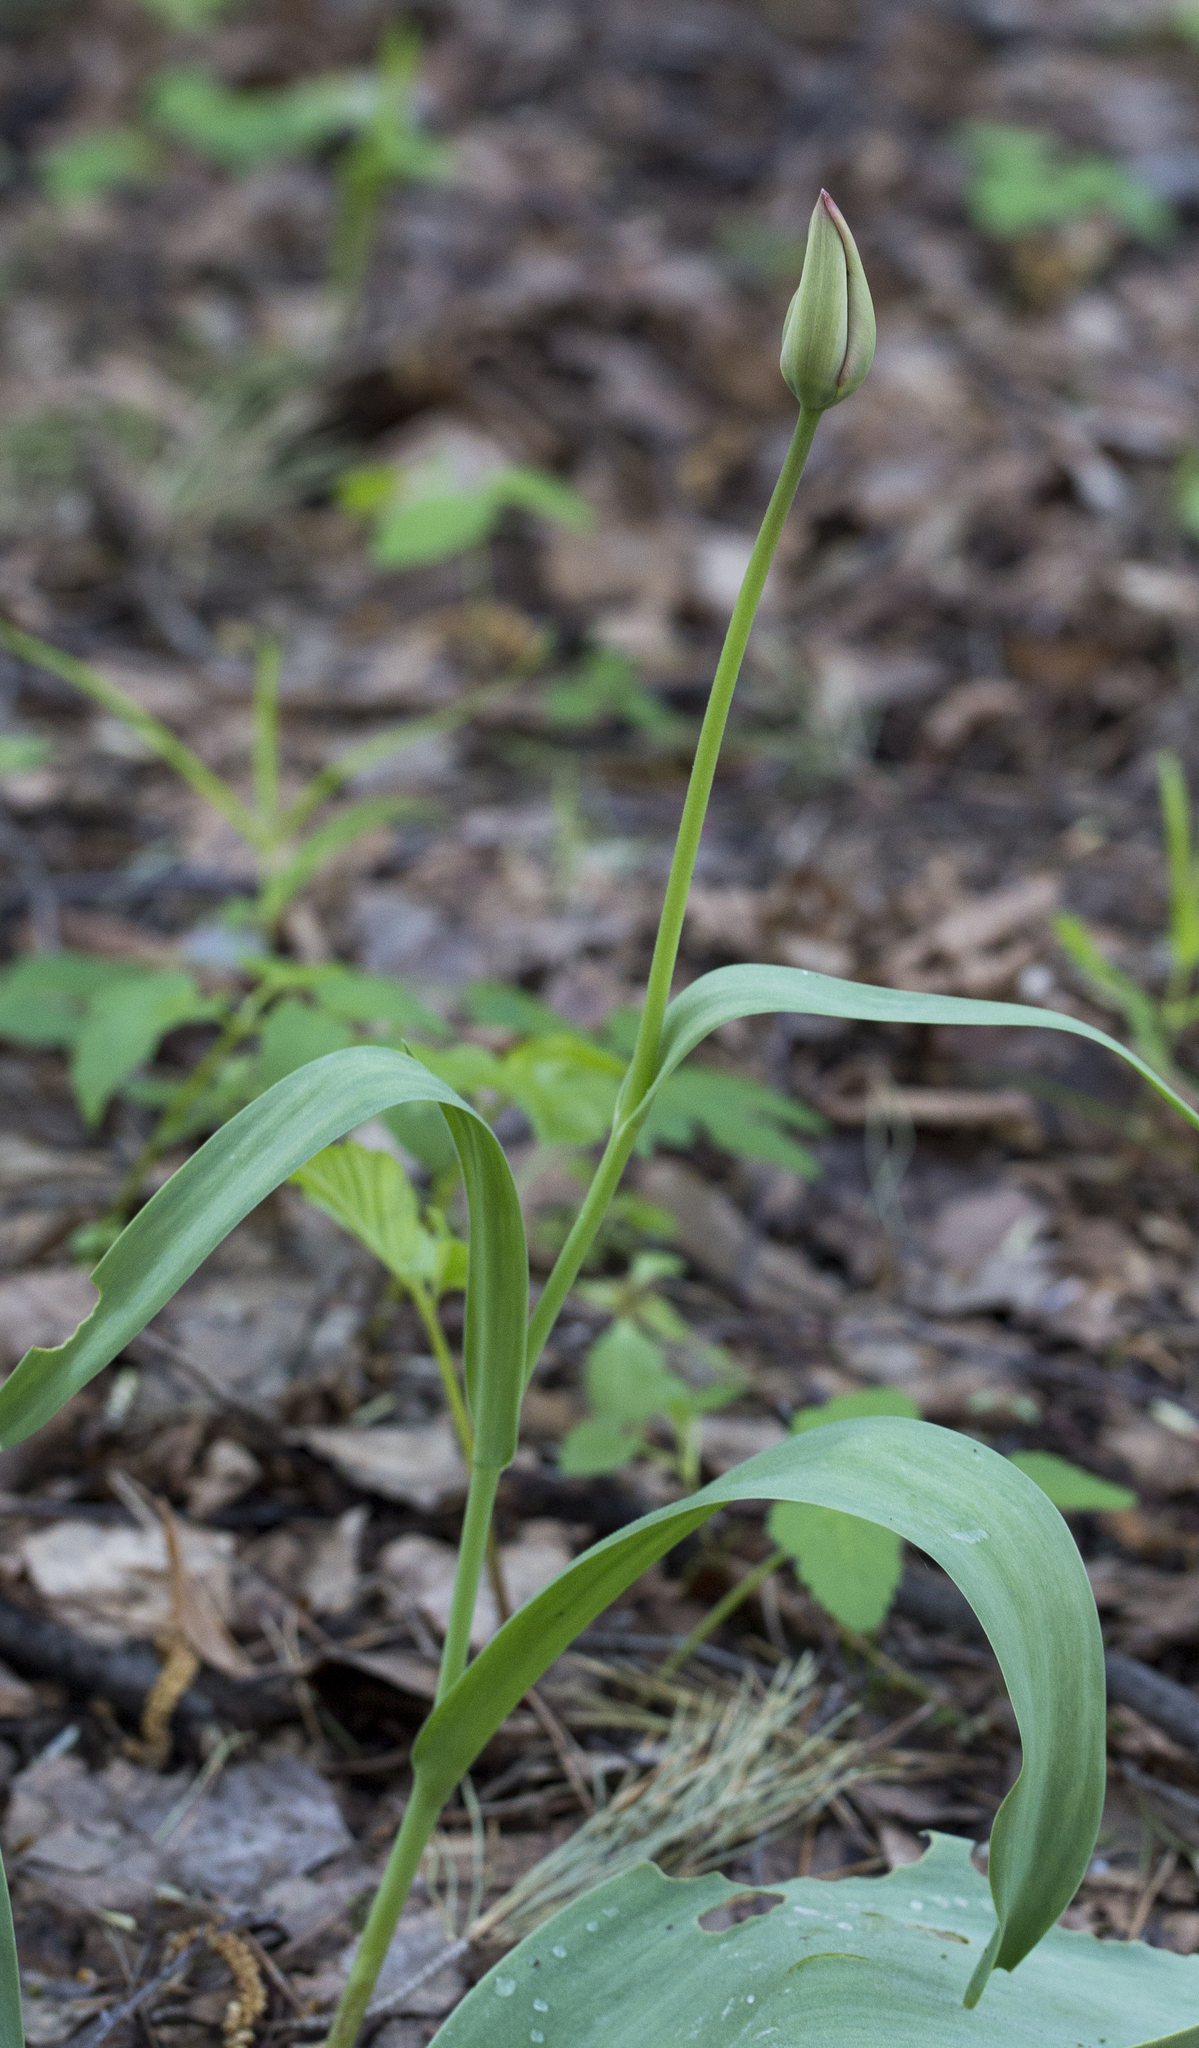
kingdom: Plantae
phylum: Tracheophyta
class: Liliopsida
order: Liliales
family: Liliaceae
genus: Tulipa
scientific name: Tulipa gesneriana
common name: Garden tulip
